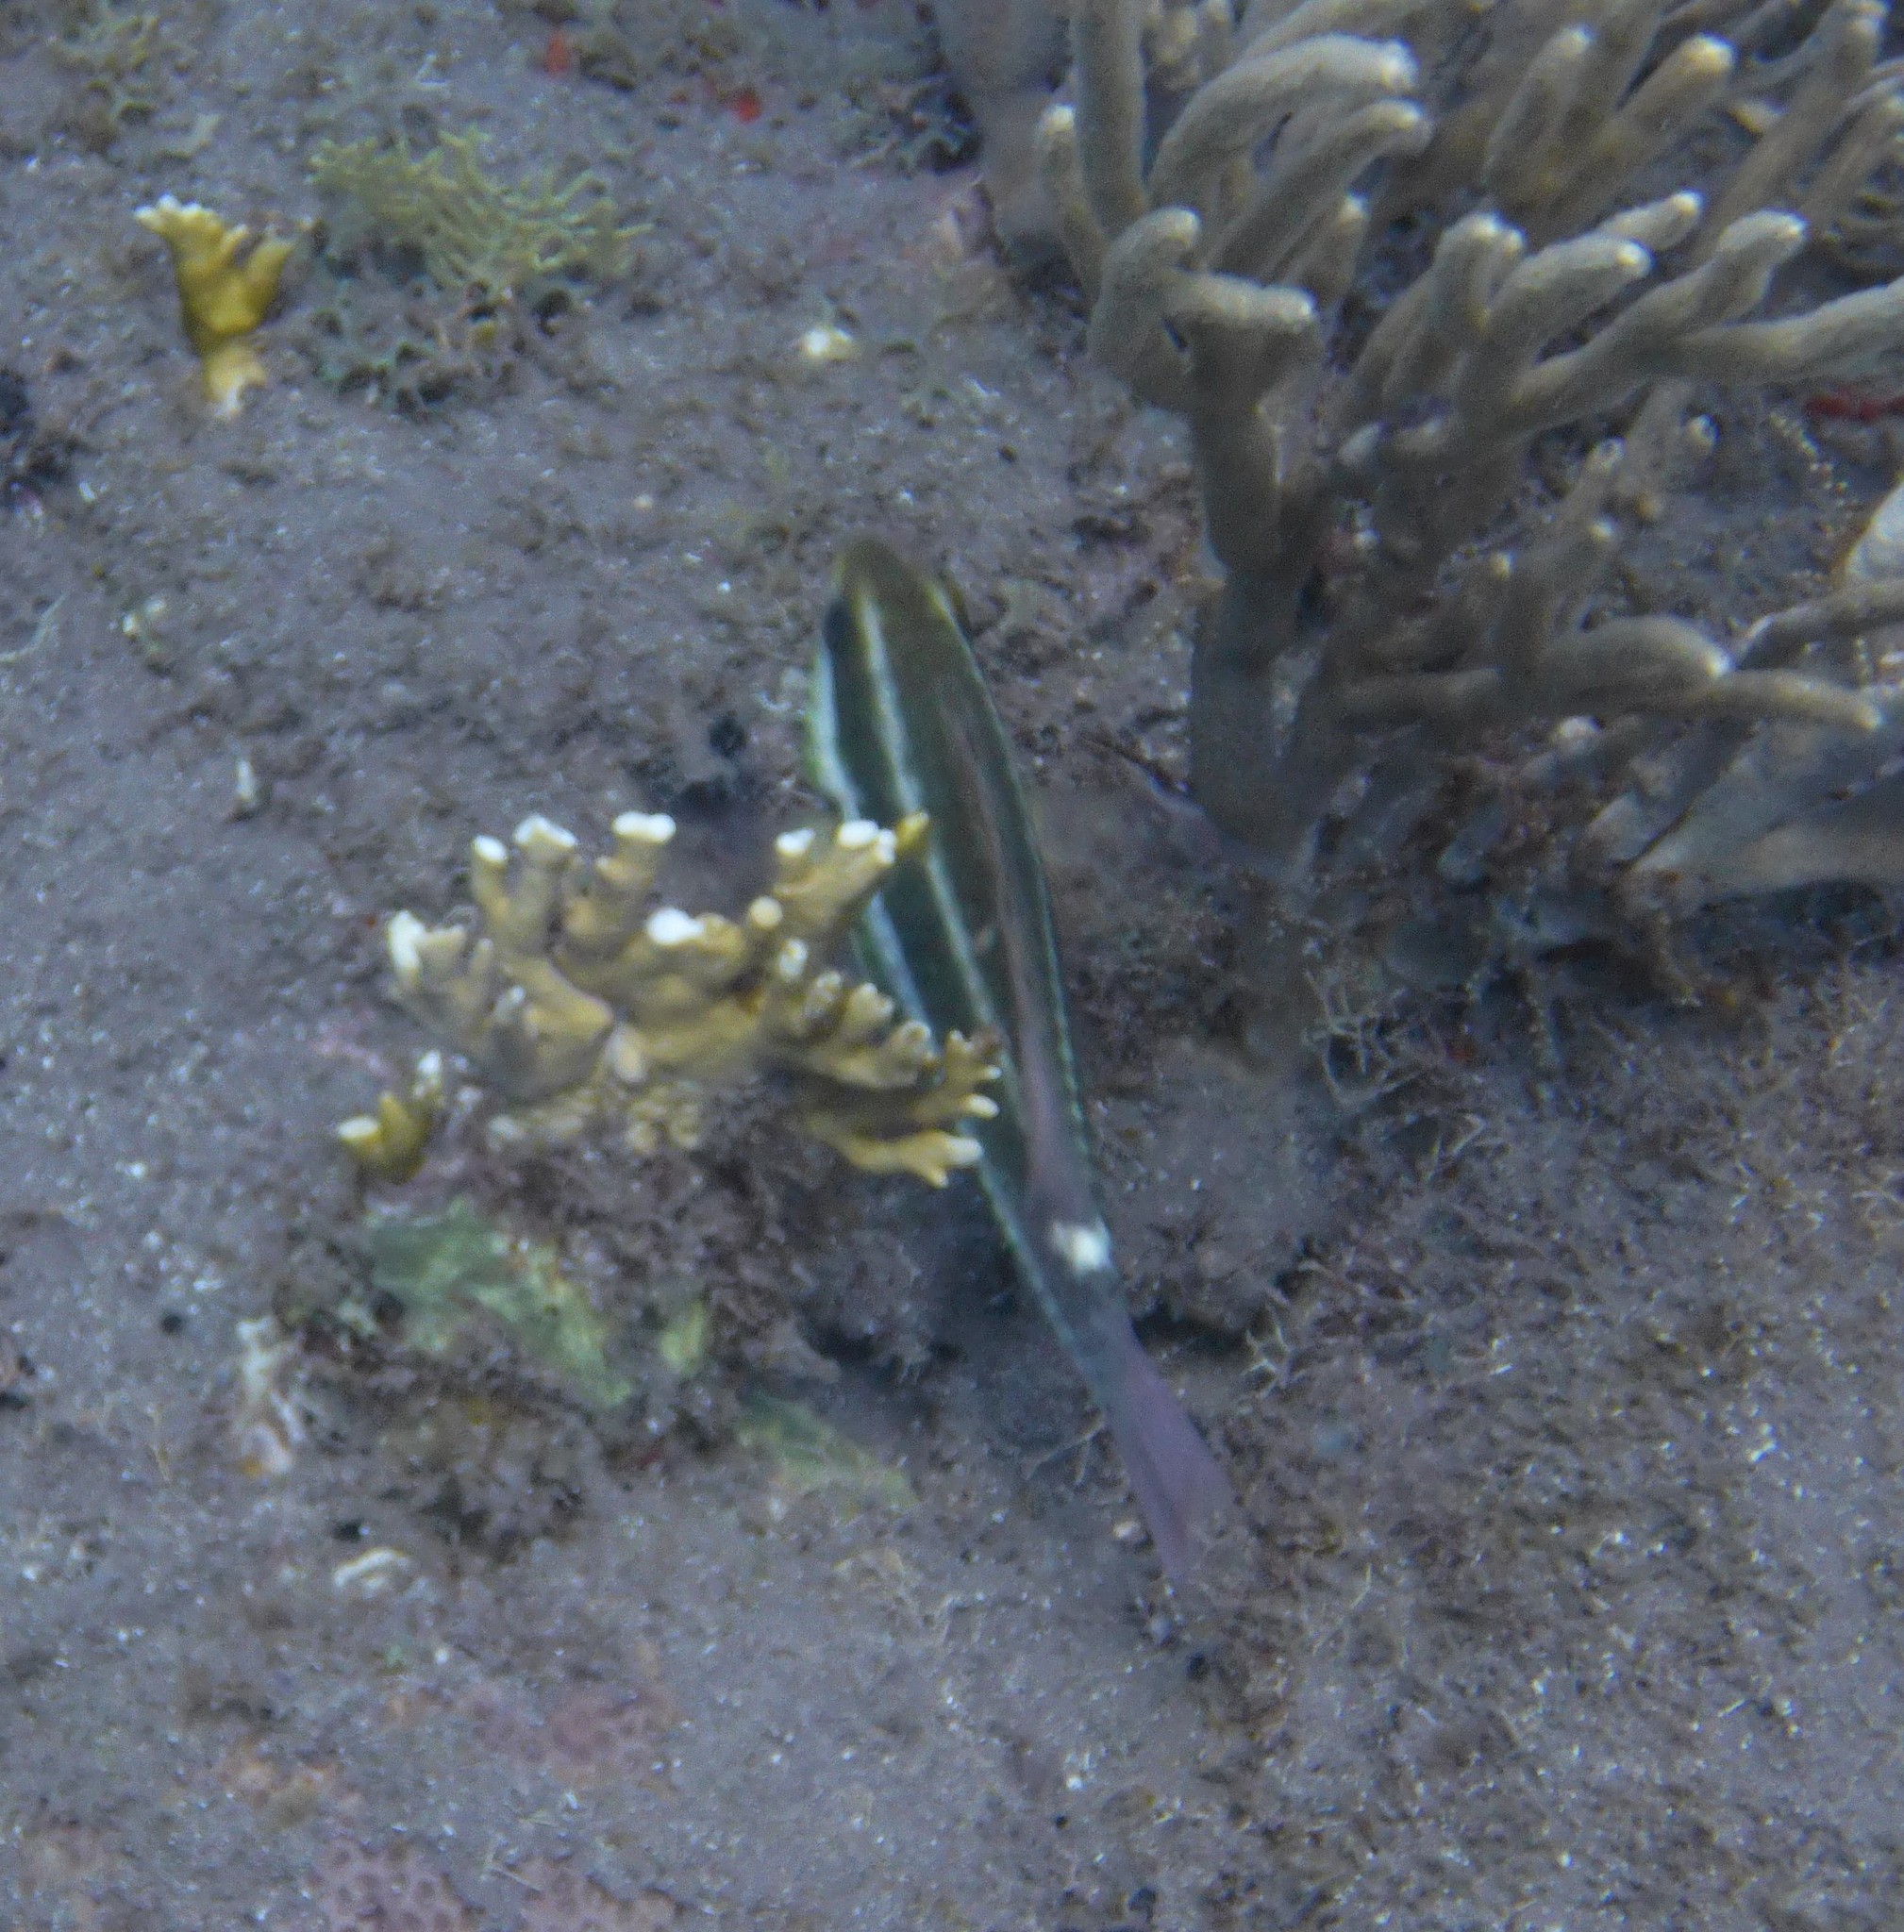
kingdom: Animalia
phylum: Chordata
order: Perciformes
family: Scaridae
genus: Scarus
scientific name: Scarus iseri
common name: Striped parrotfish
